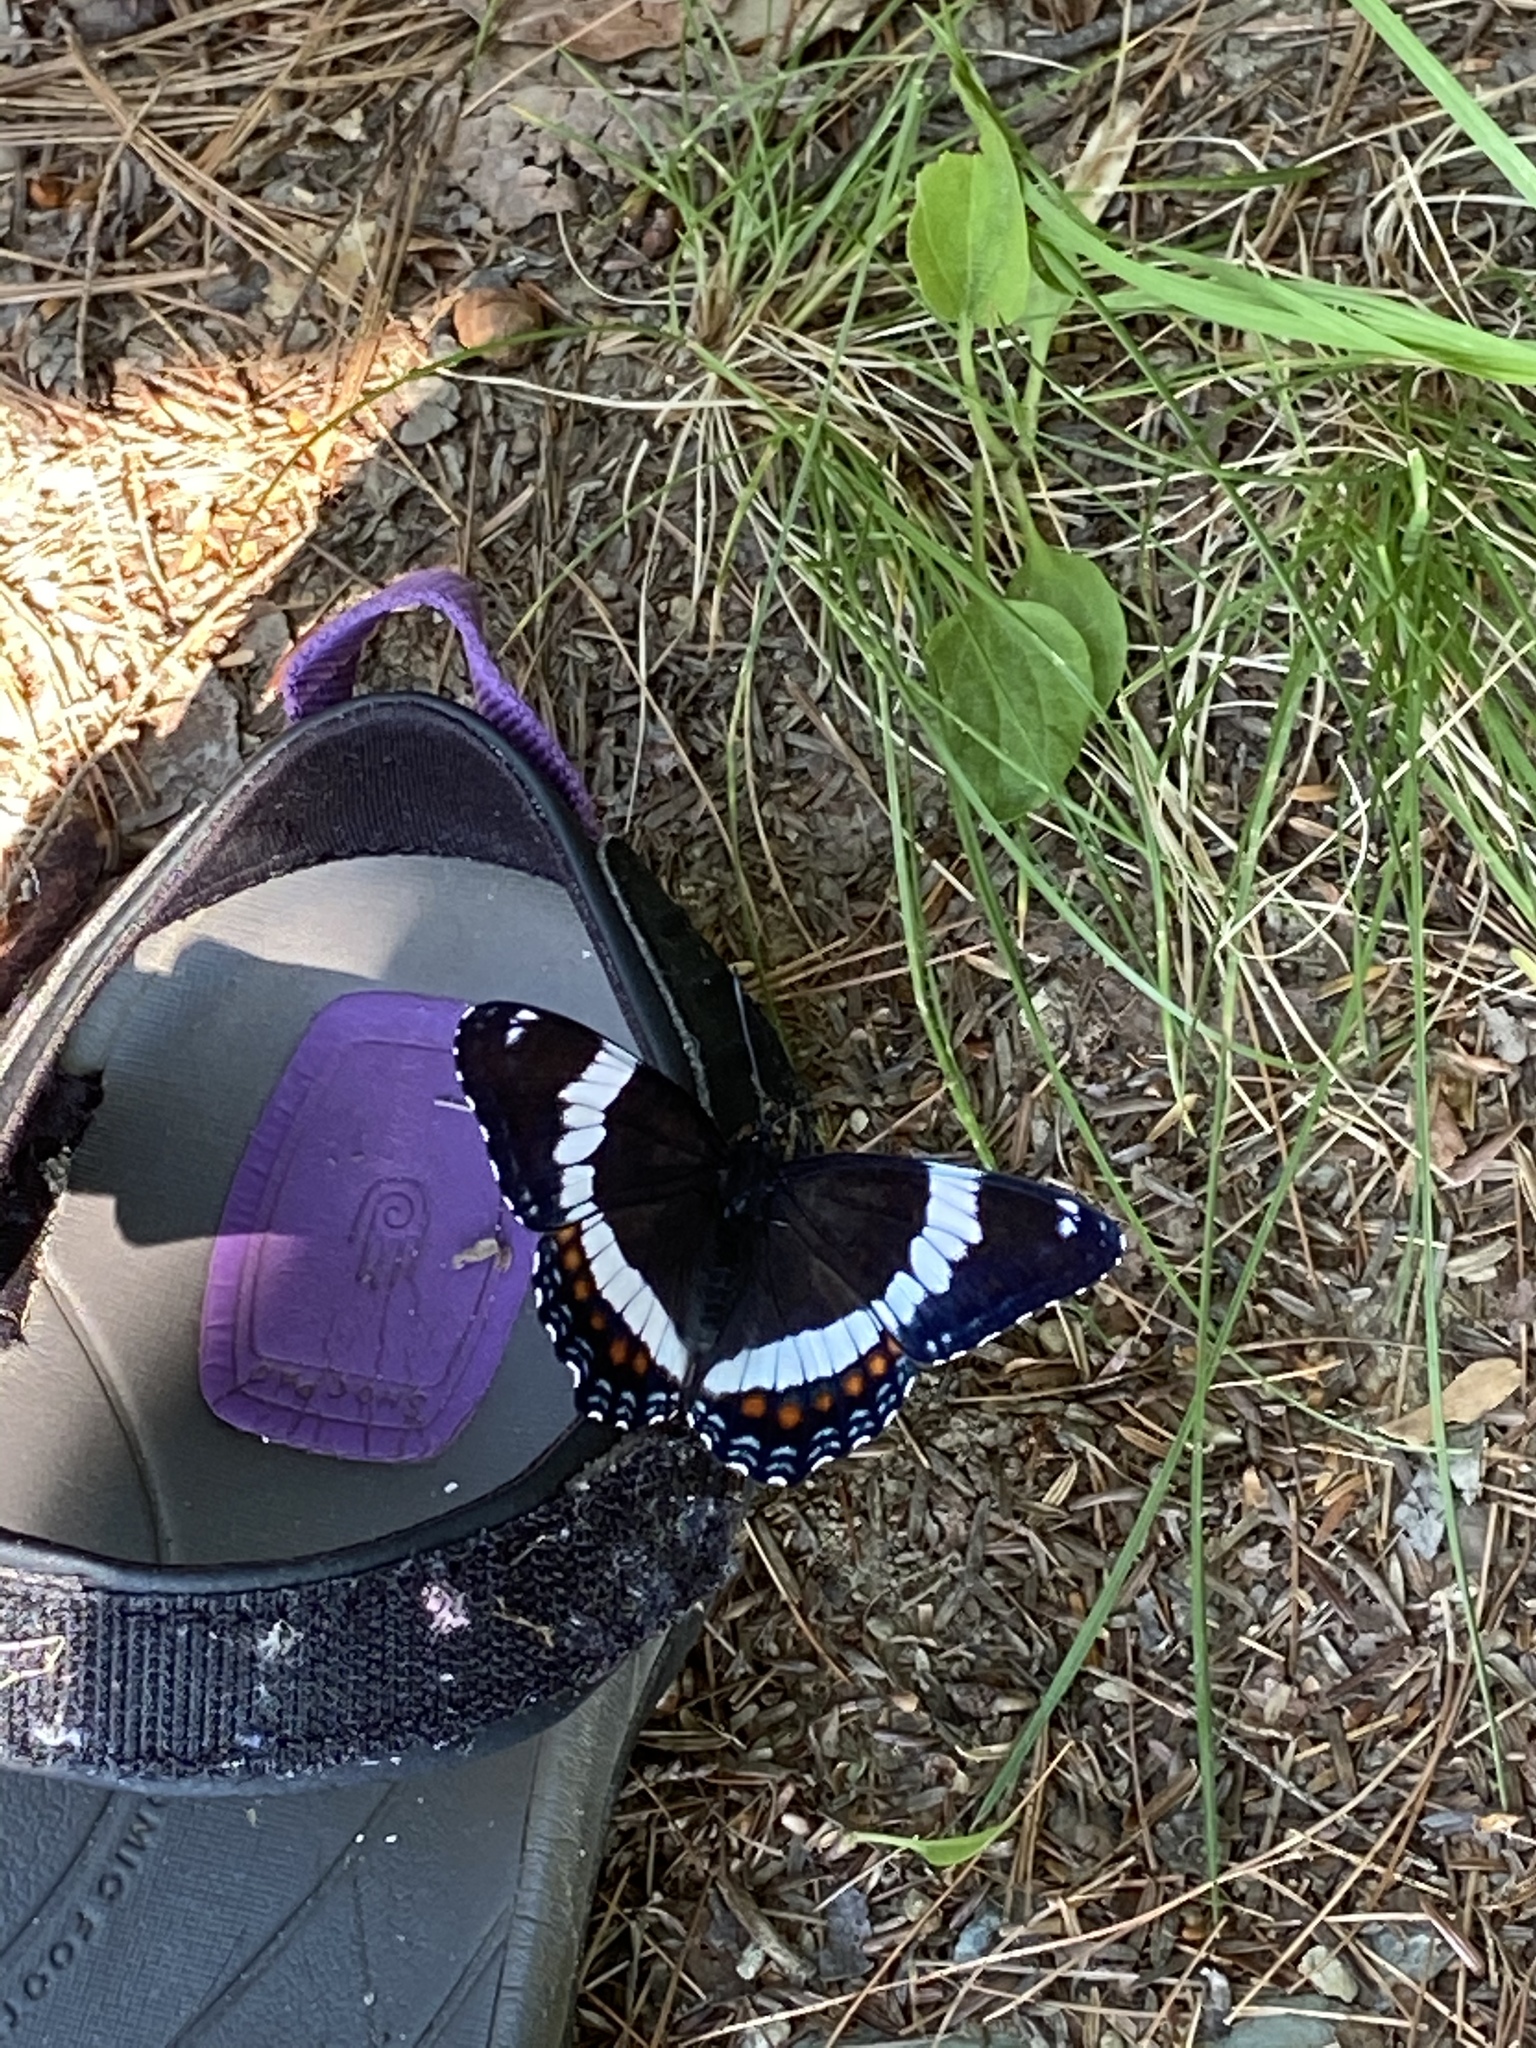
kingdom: Animalia
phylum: Arthropoda
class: Insecta
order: Lepidoptera
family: Nymphalidae
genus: Limenitis
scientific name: Limenitis arthemis
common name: Red-spotted admiral
